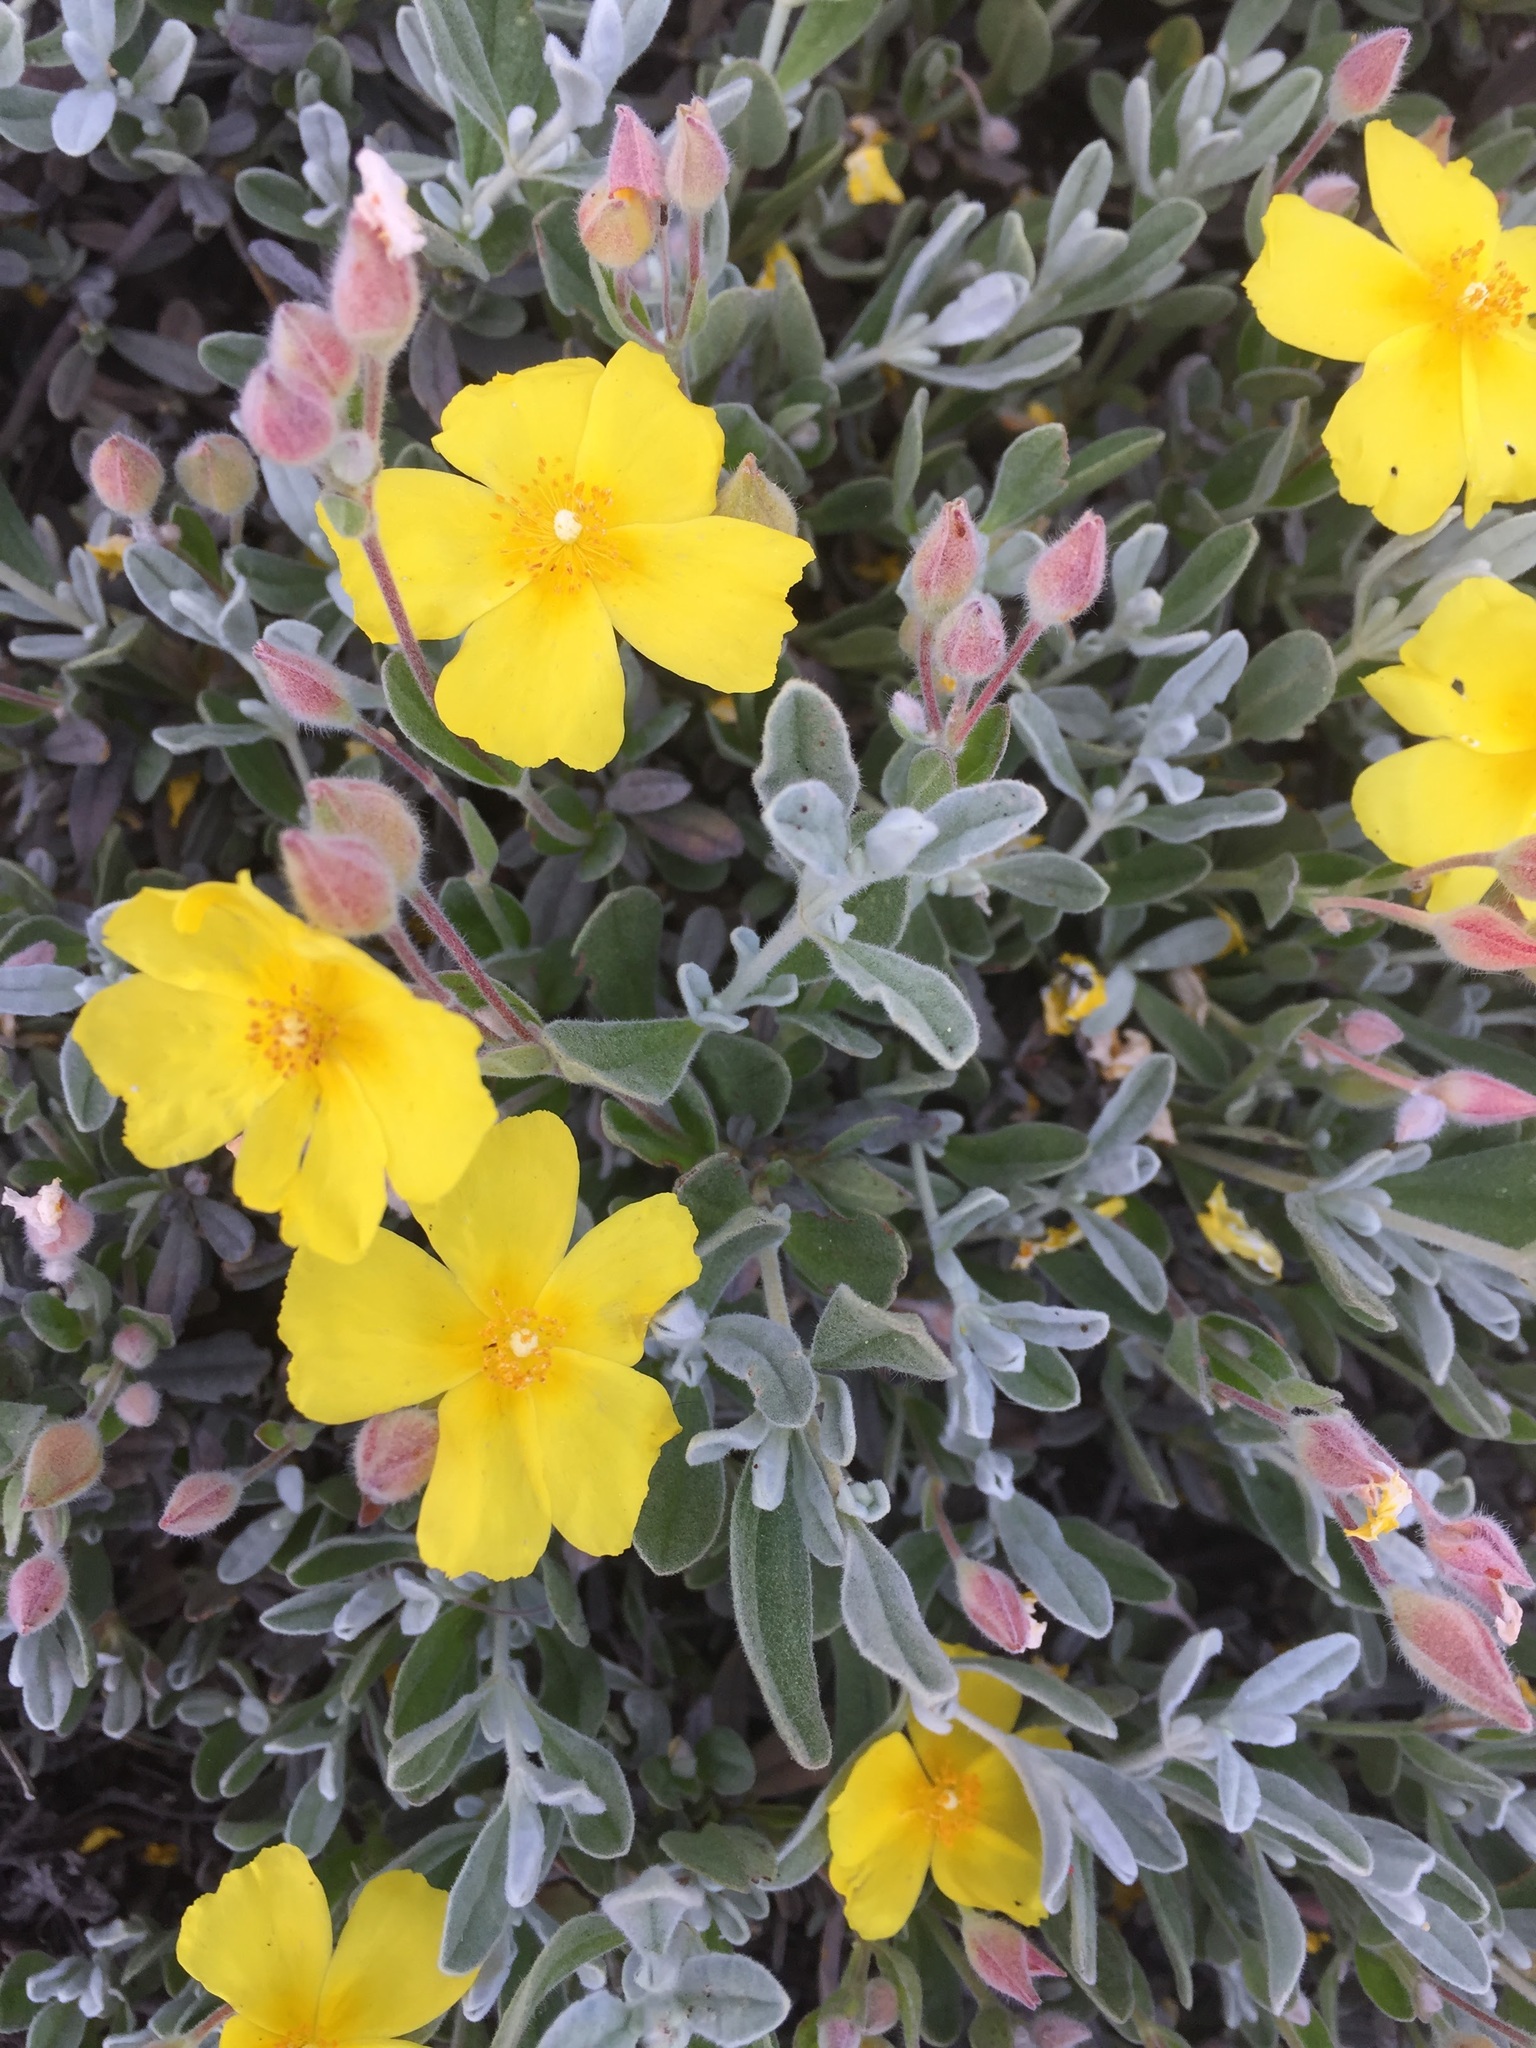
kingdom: Plantae
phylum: Tracheophyta
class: Magnoliopsida
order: Malvales
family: Cistaceae
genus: Halimium
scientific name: Halimium lasianthum
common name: Lisbon false sun-rose
